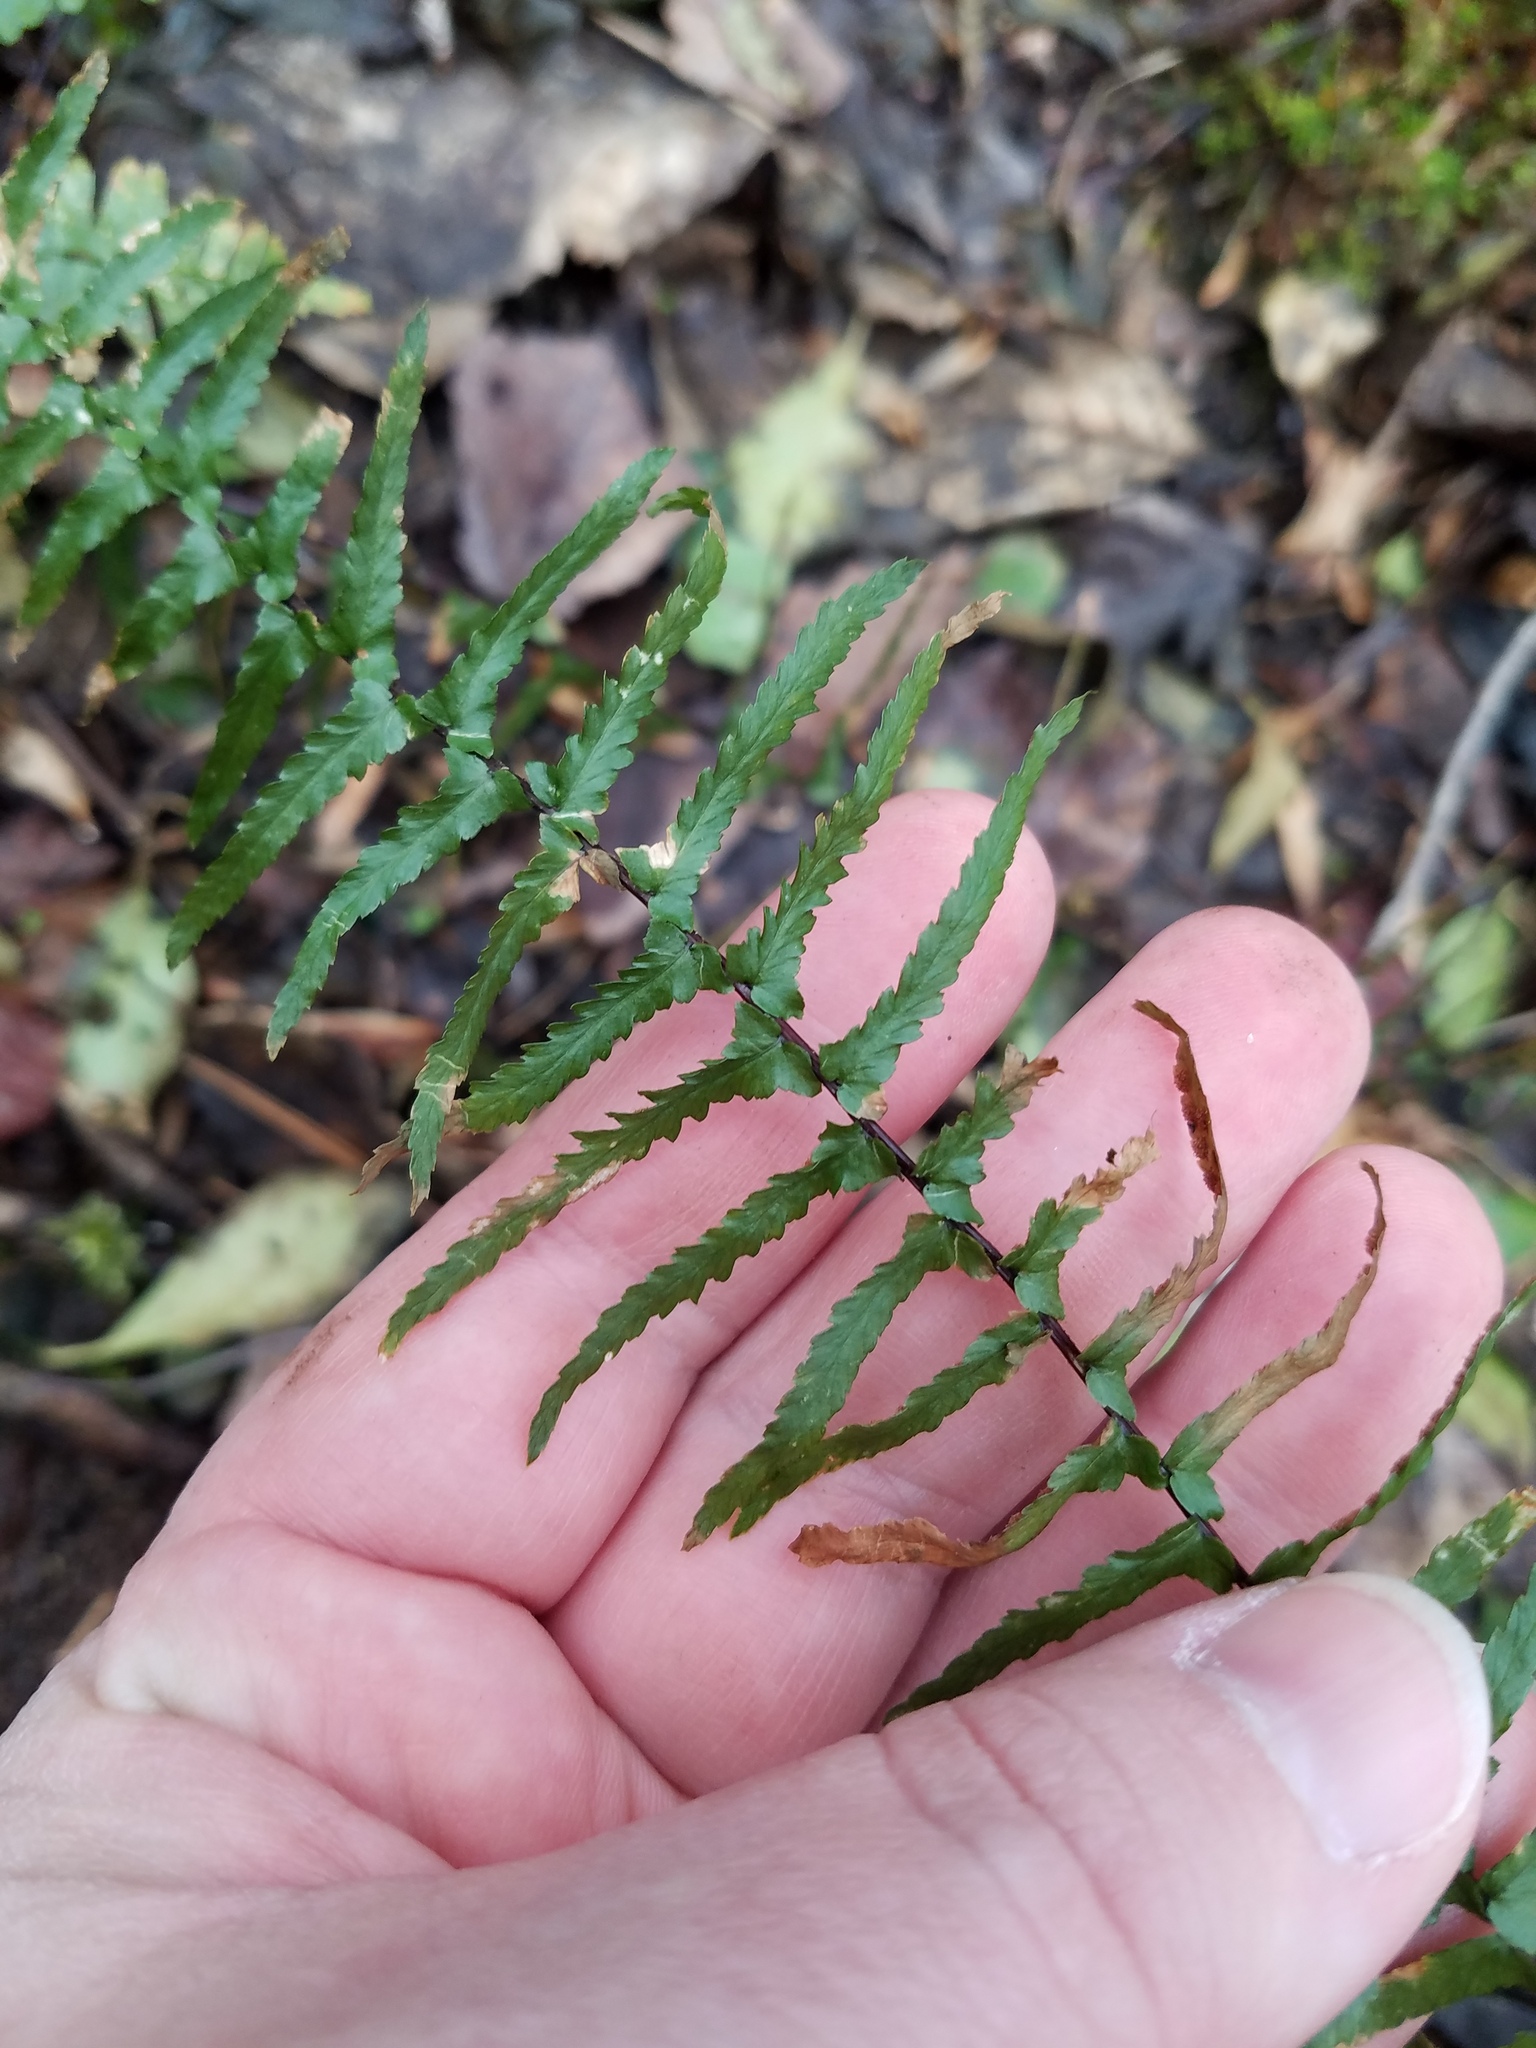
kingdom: Plantae
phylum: Tracheophyta
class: Polypodiopsida
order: Polypodiales
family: Aspleniaceae
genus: Asplenium
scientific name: Asplenium platyneuron
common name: Ebony spleenwort
